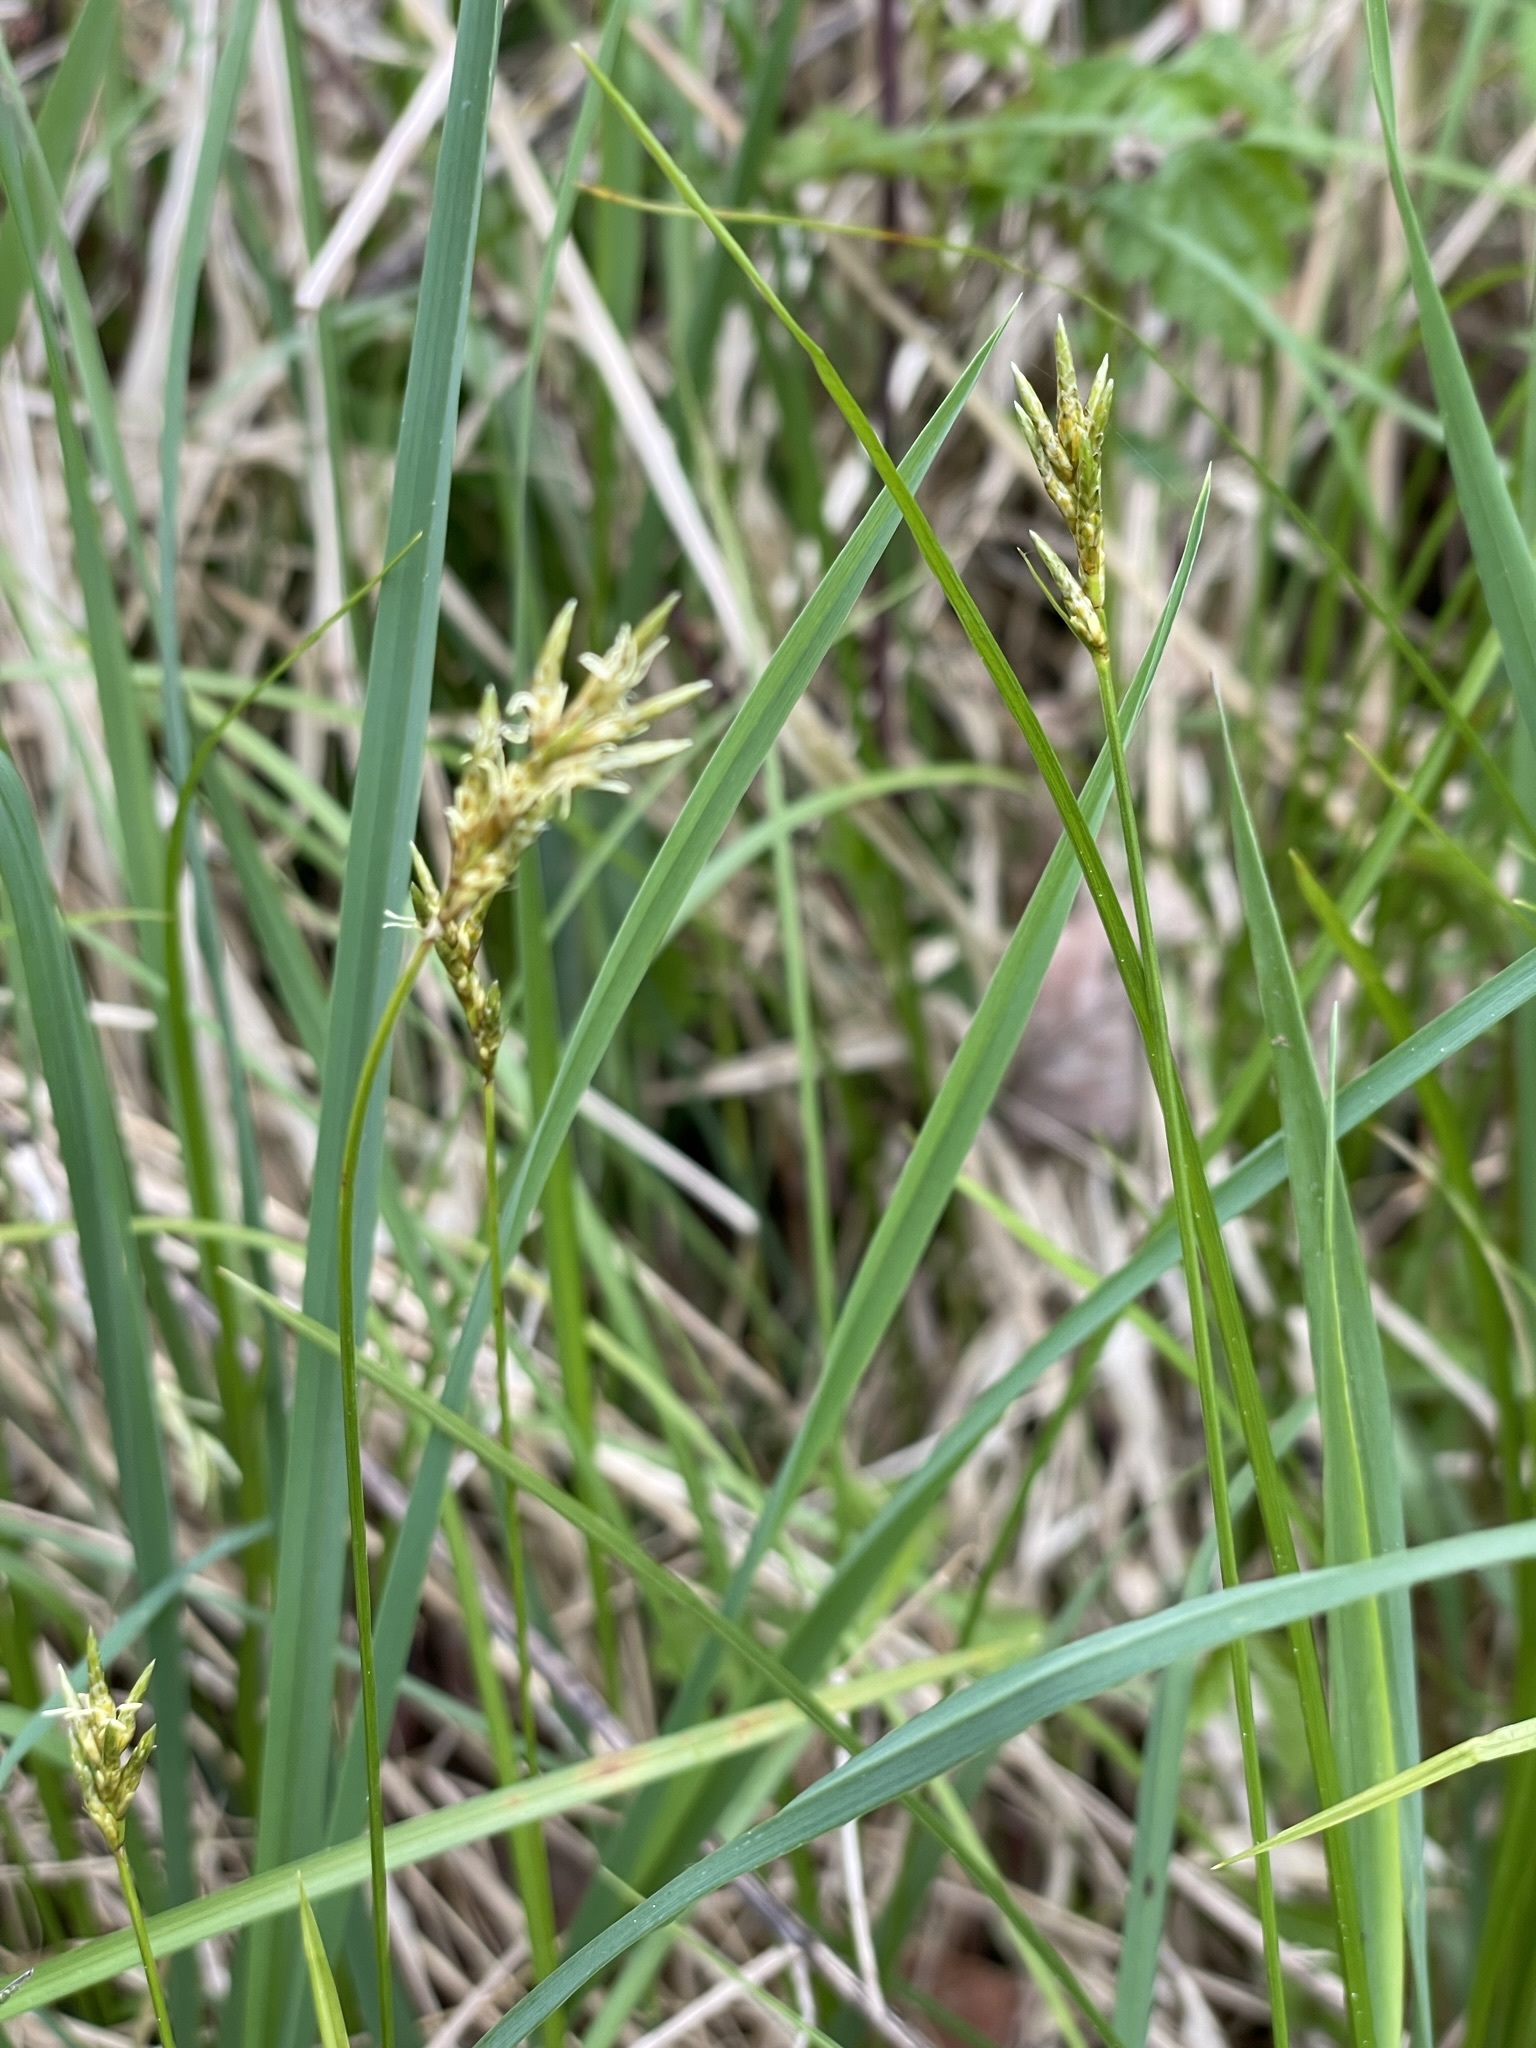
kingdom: Plantae
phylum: Tracheophyta
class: Liliopsida
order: Poales
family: Cyperaceae
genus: Carex
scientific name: Carex brizoides
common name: Quaking-grass sedge
